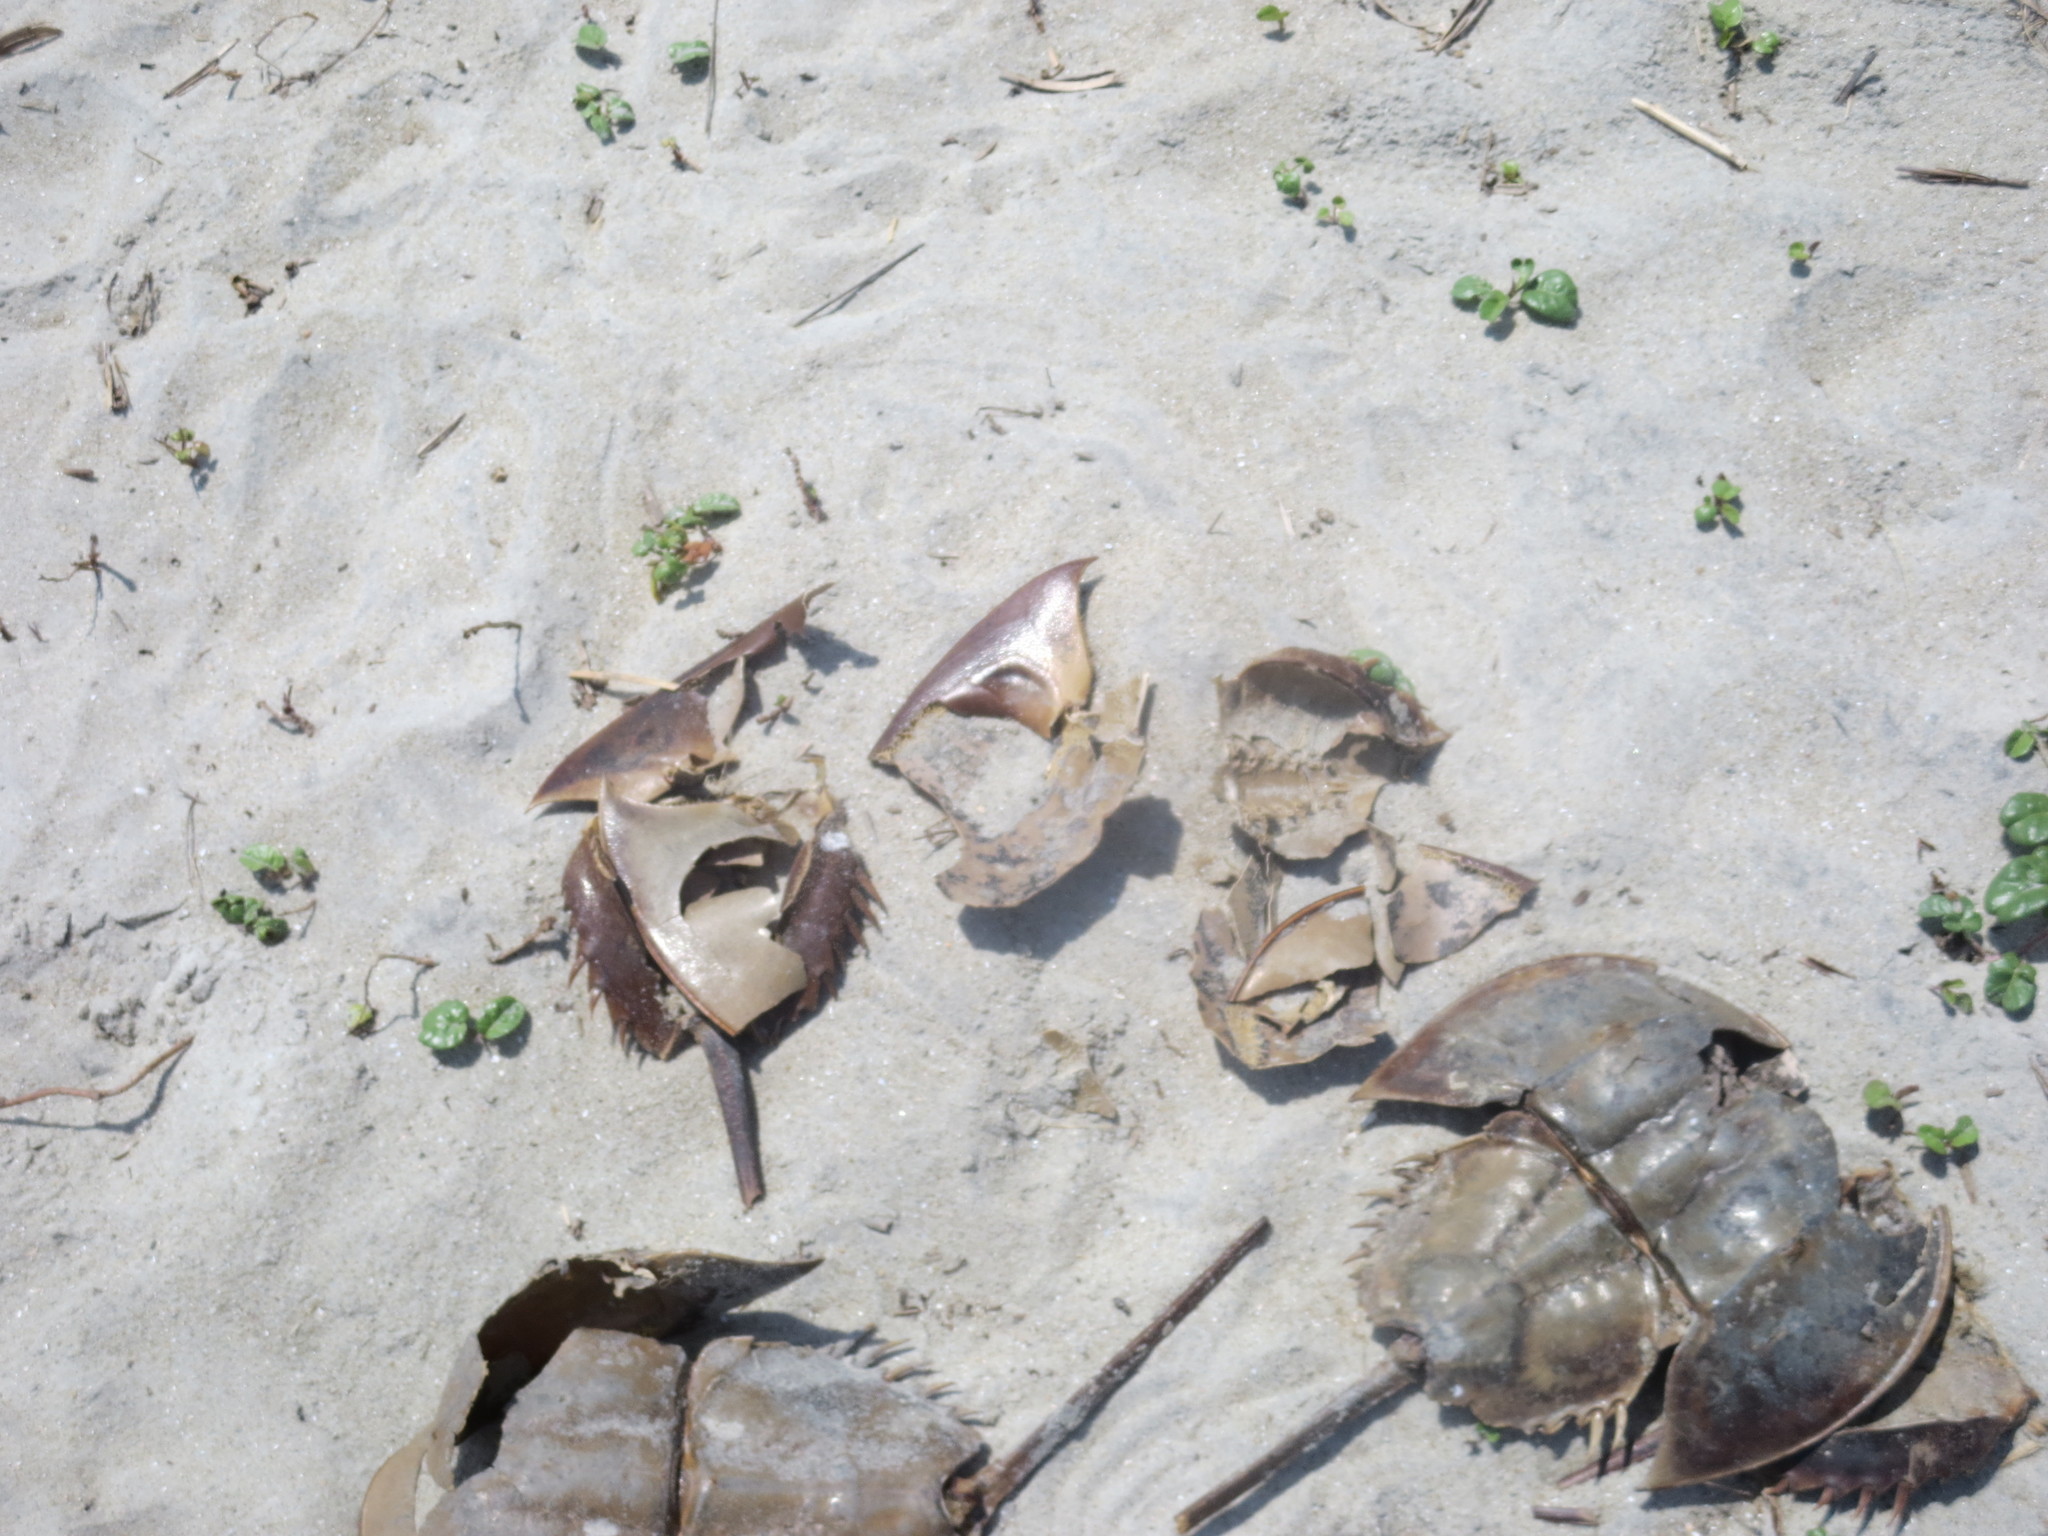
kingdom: Animalia
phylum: Arthropoda
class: Merostomata
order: Xiphosurida
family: Limulidae
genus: Limulus
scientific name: Limulus polyphemus
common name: Horseshoe crab
